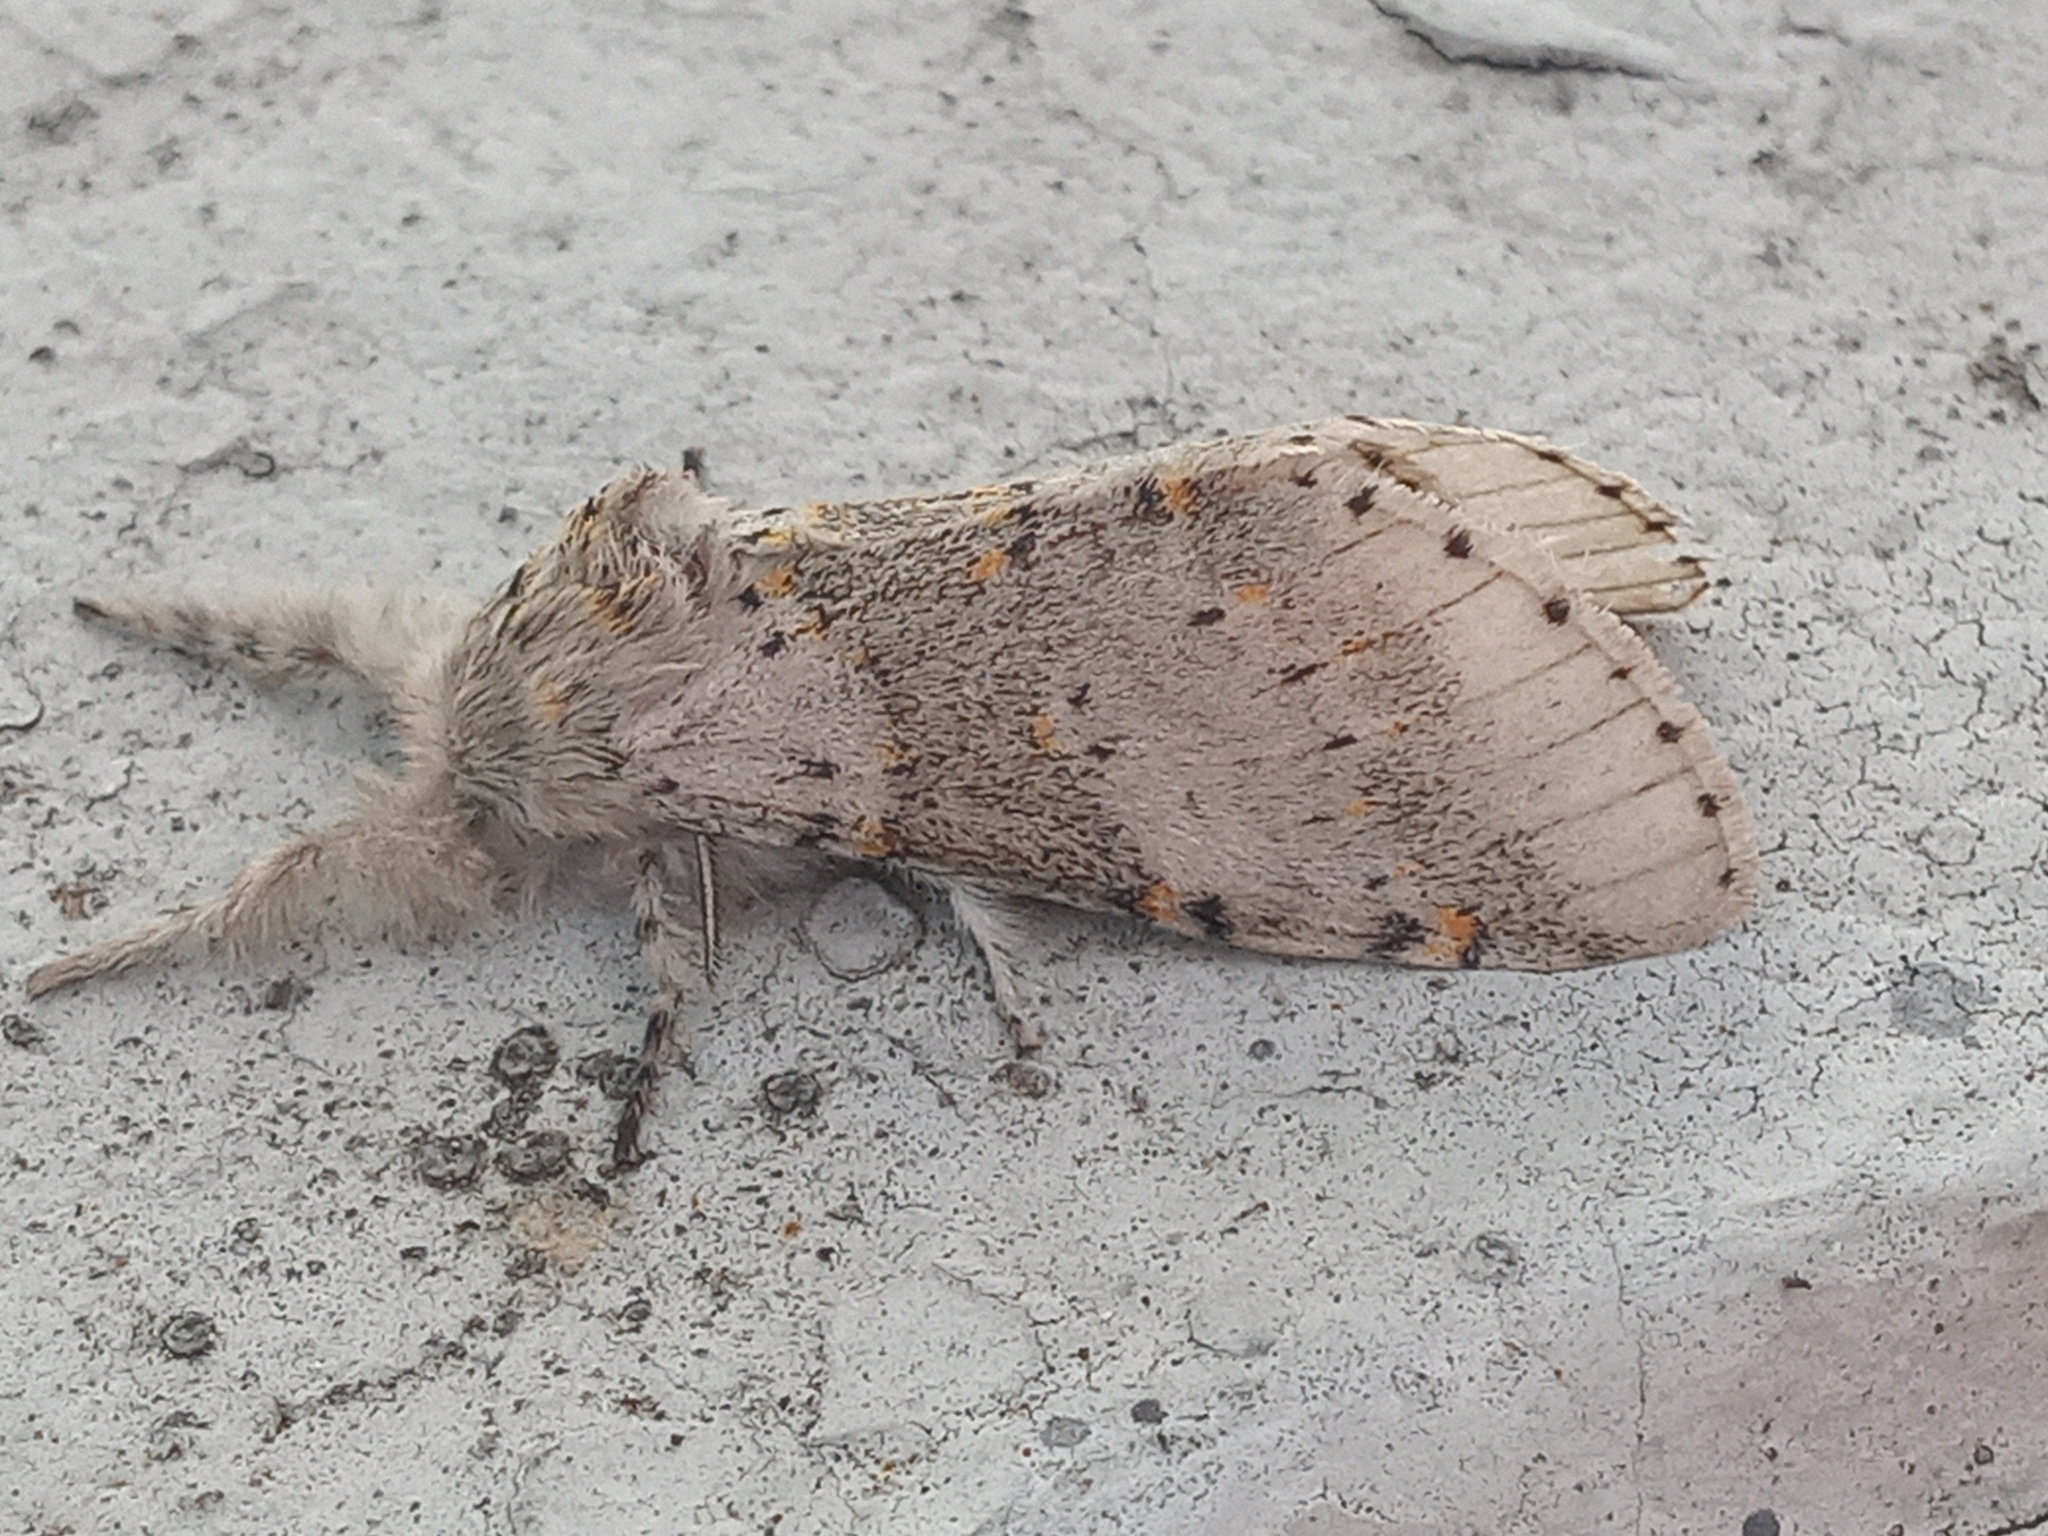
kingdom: Animalia
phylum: Arthropoda
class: Insecta
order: Lepidoptera
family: Notodontidae
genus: Furcula
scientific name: Furcula
